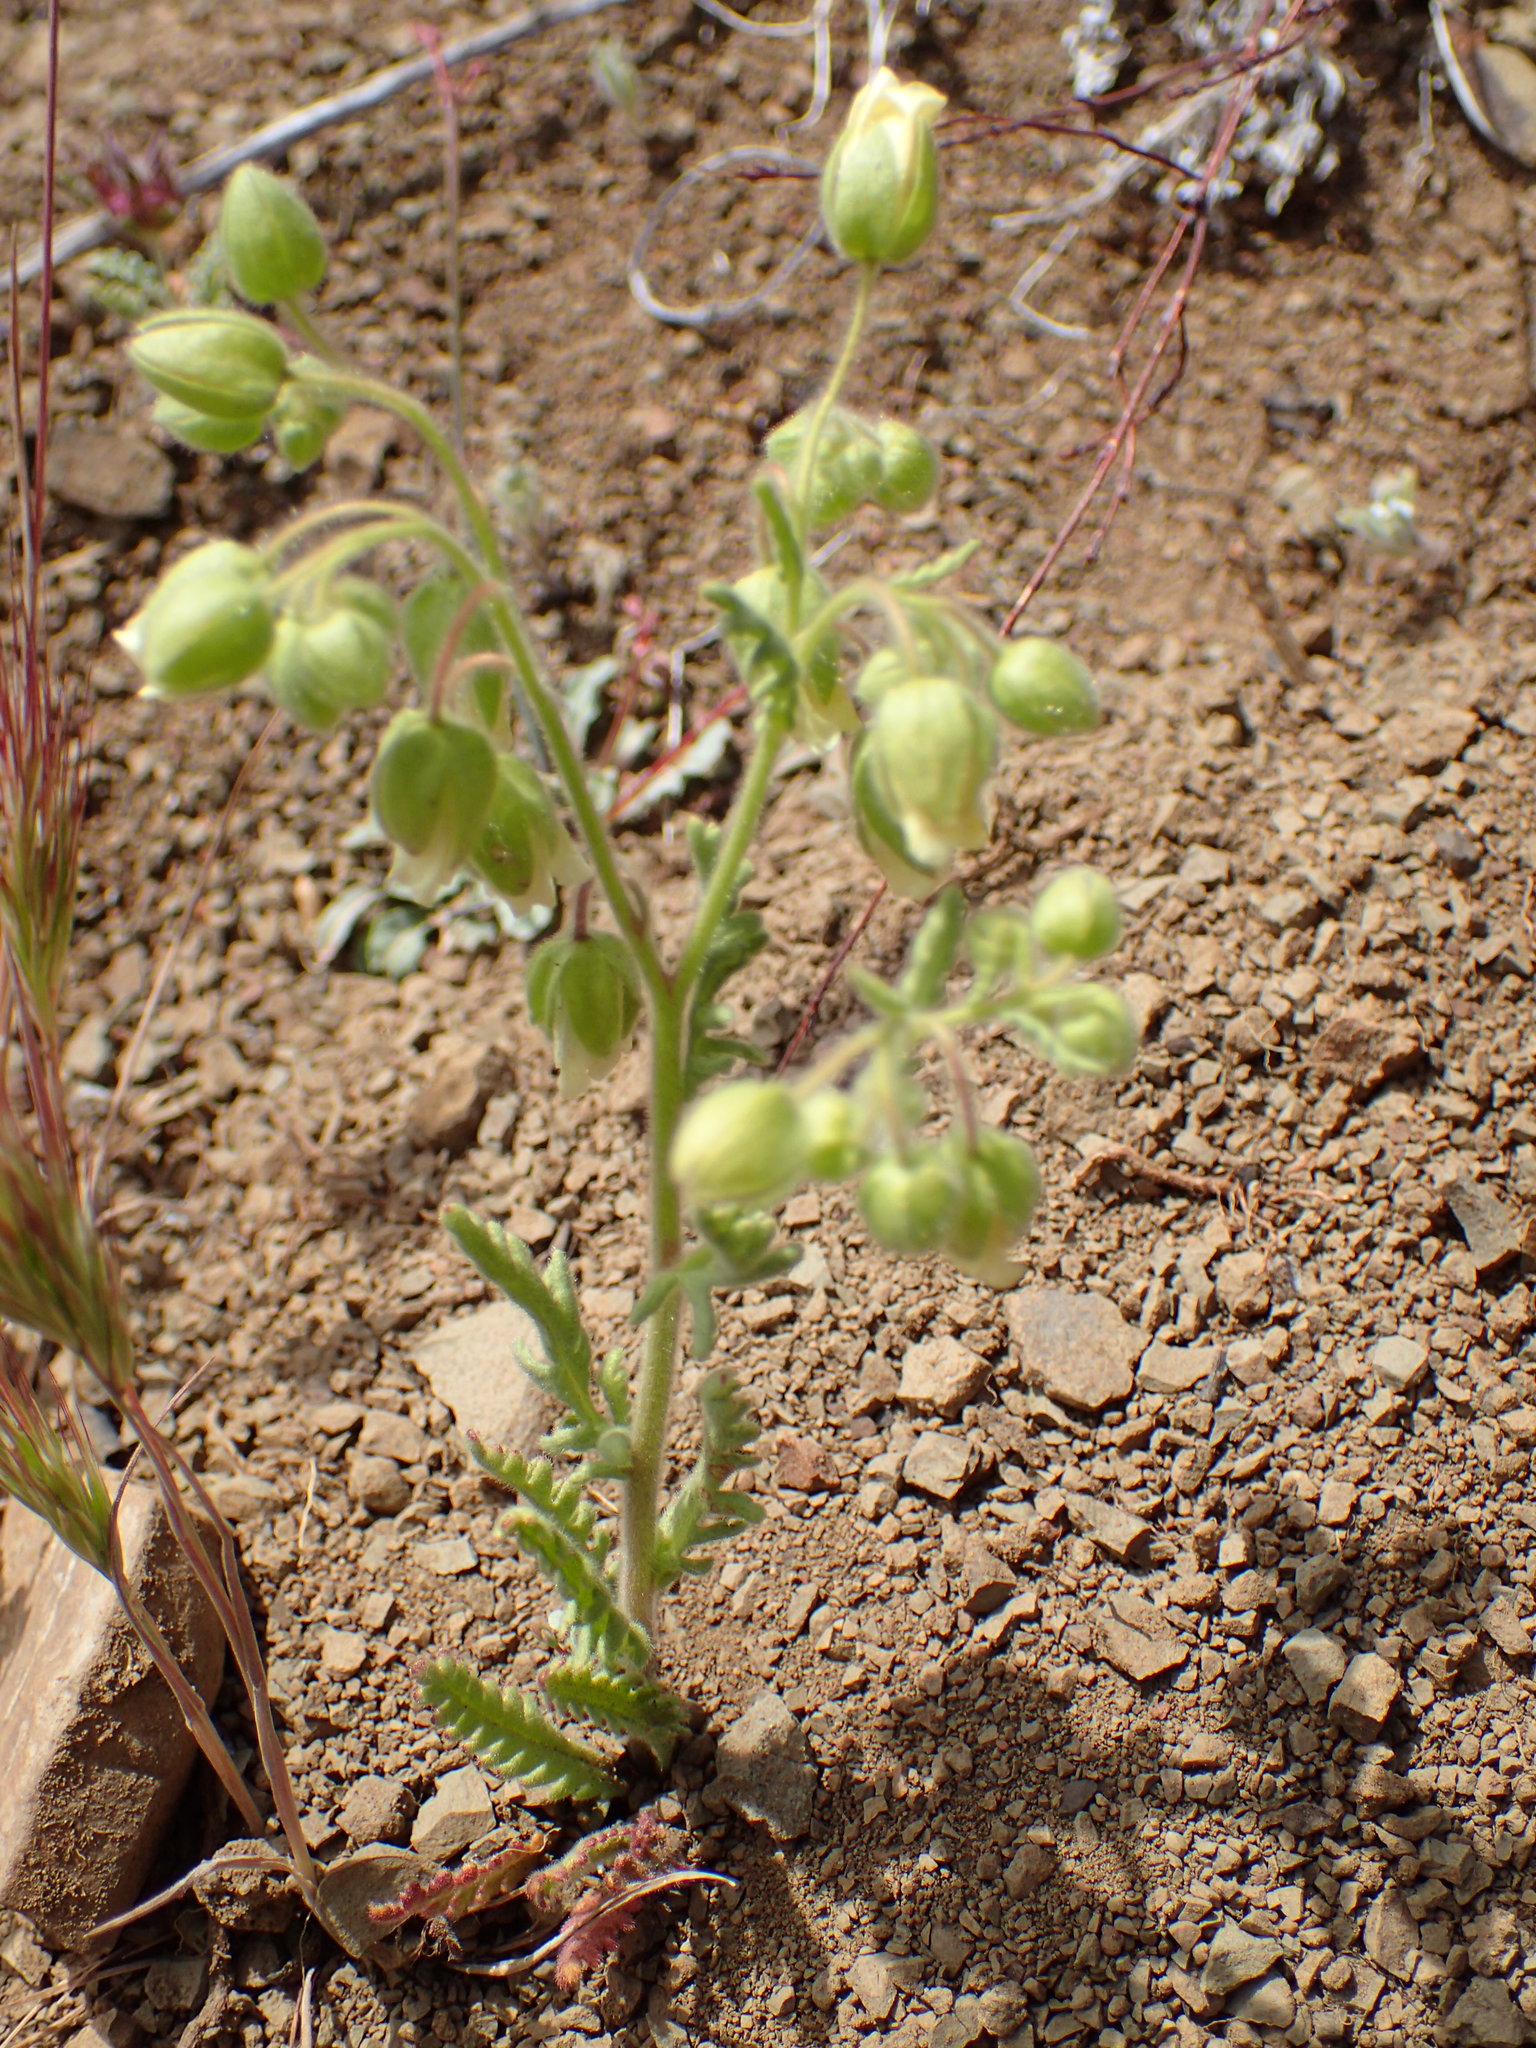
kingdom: Plantae
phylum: Tracheophyta
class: Magnoliopsida
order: Boraginales
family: Hydrophyllaceae
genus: Emmenanthe
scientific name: Emmenanthe penduliflora
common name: Whispering-bells
